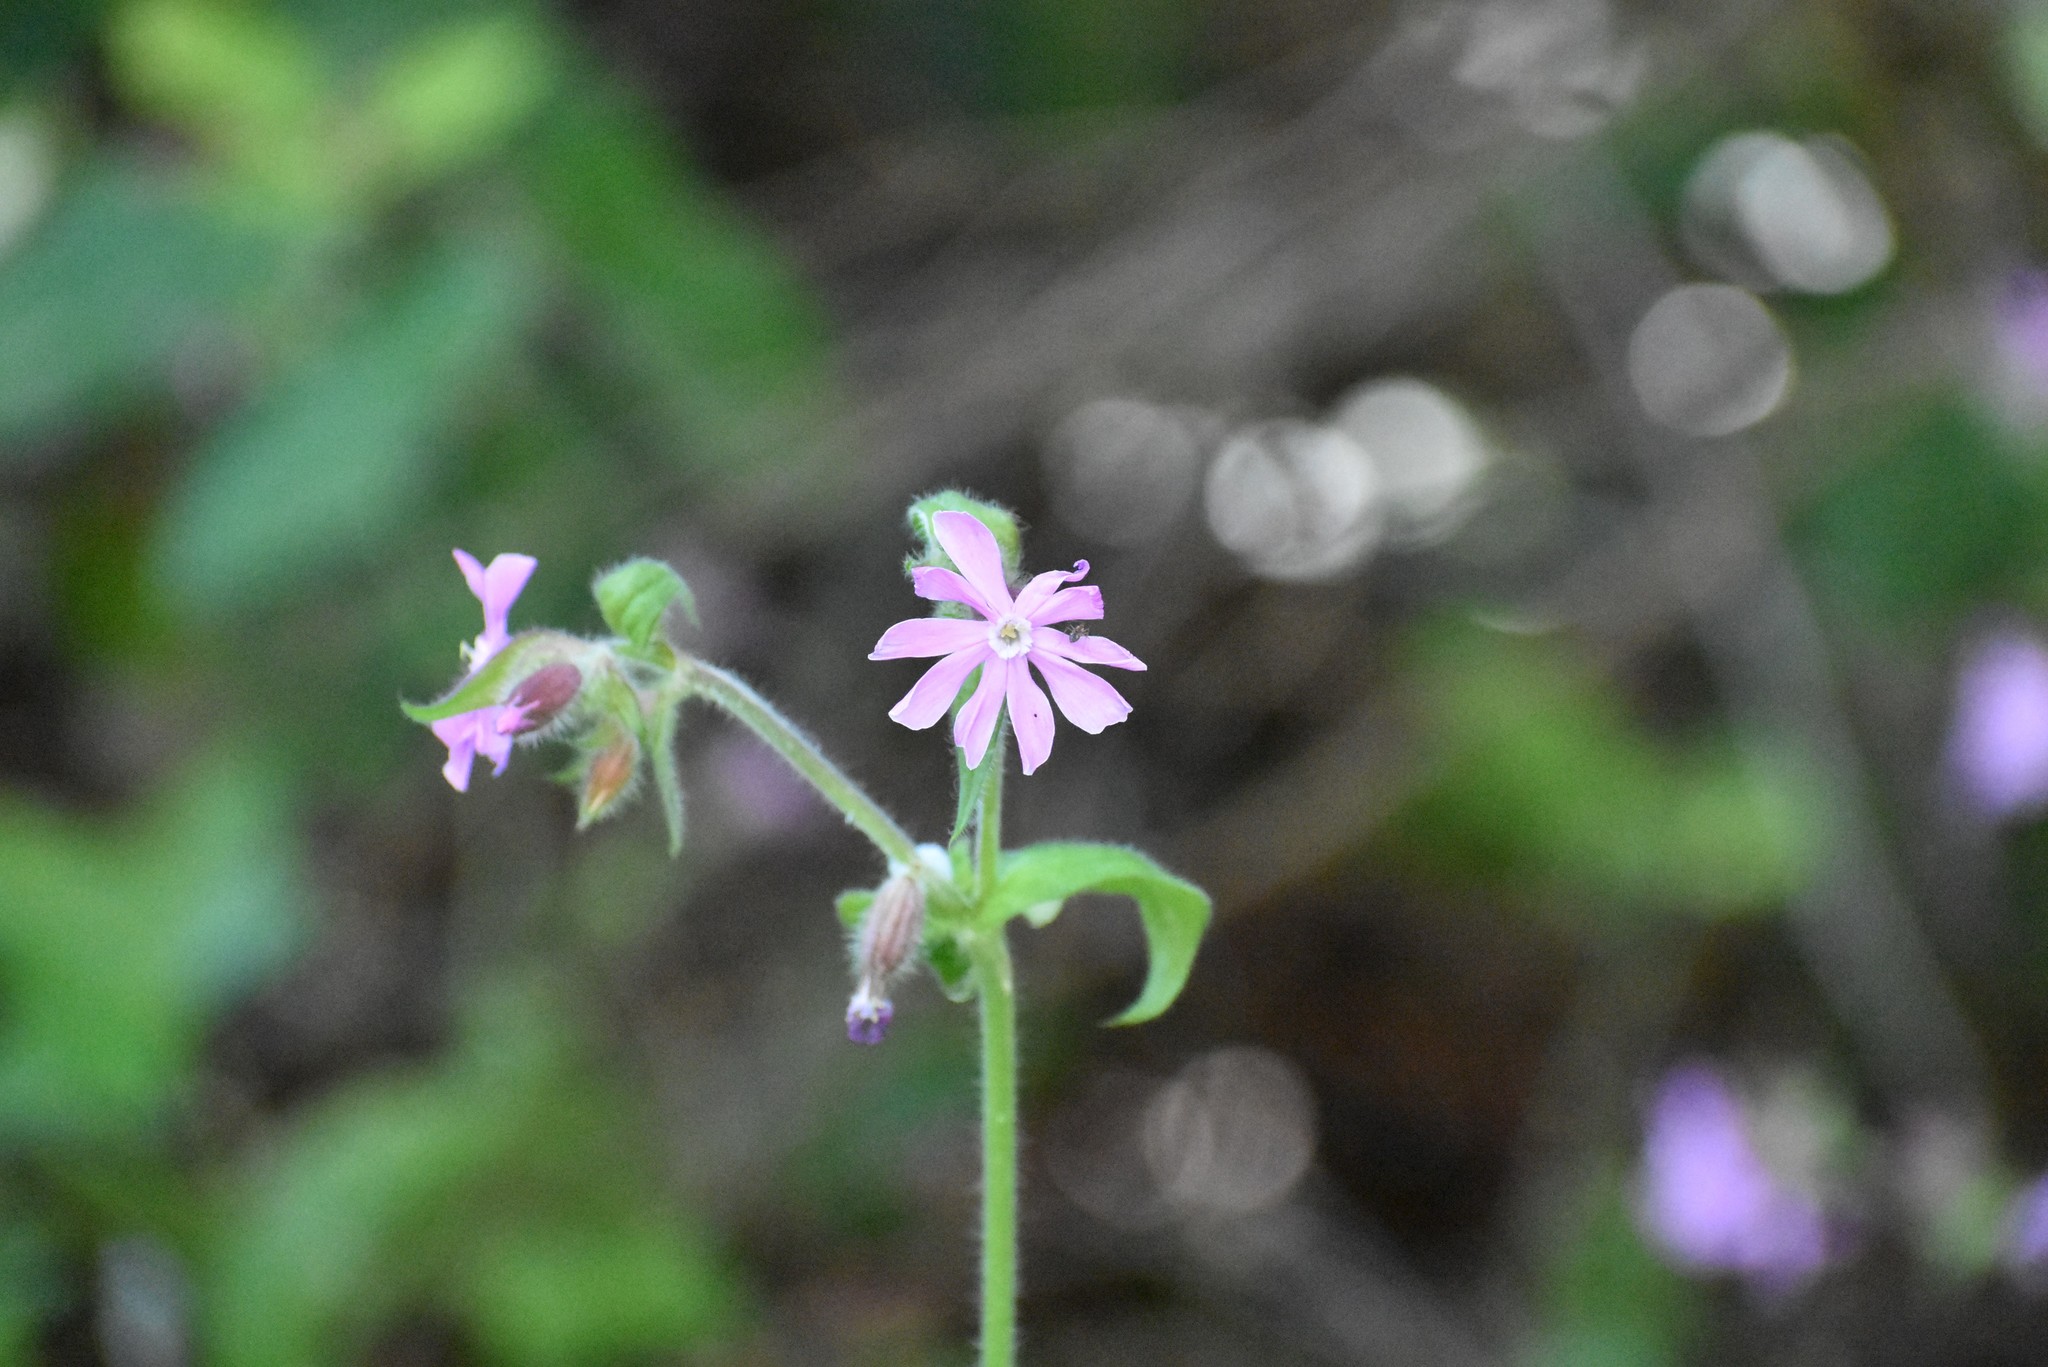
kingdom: Plantae
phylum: Tracheophyta
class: Magnoliopsida
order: Caryophyllales
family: Caryophyllaceae
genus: Silene
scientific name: Silene dioica
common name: Red campion
